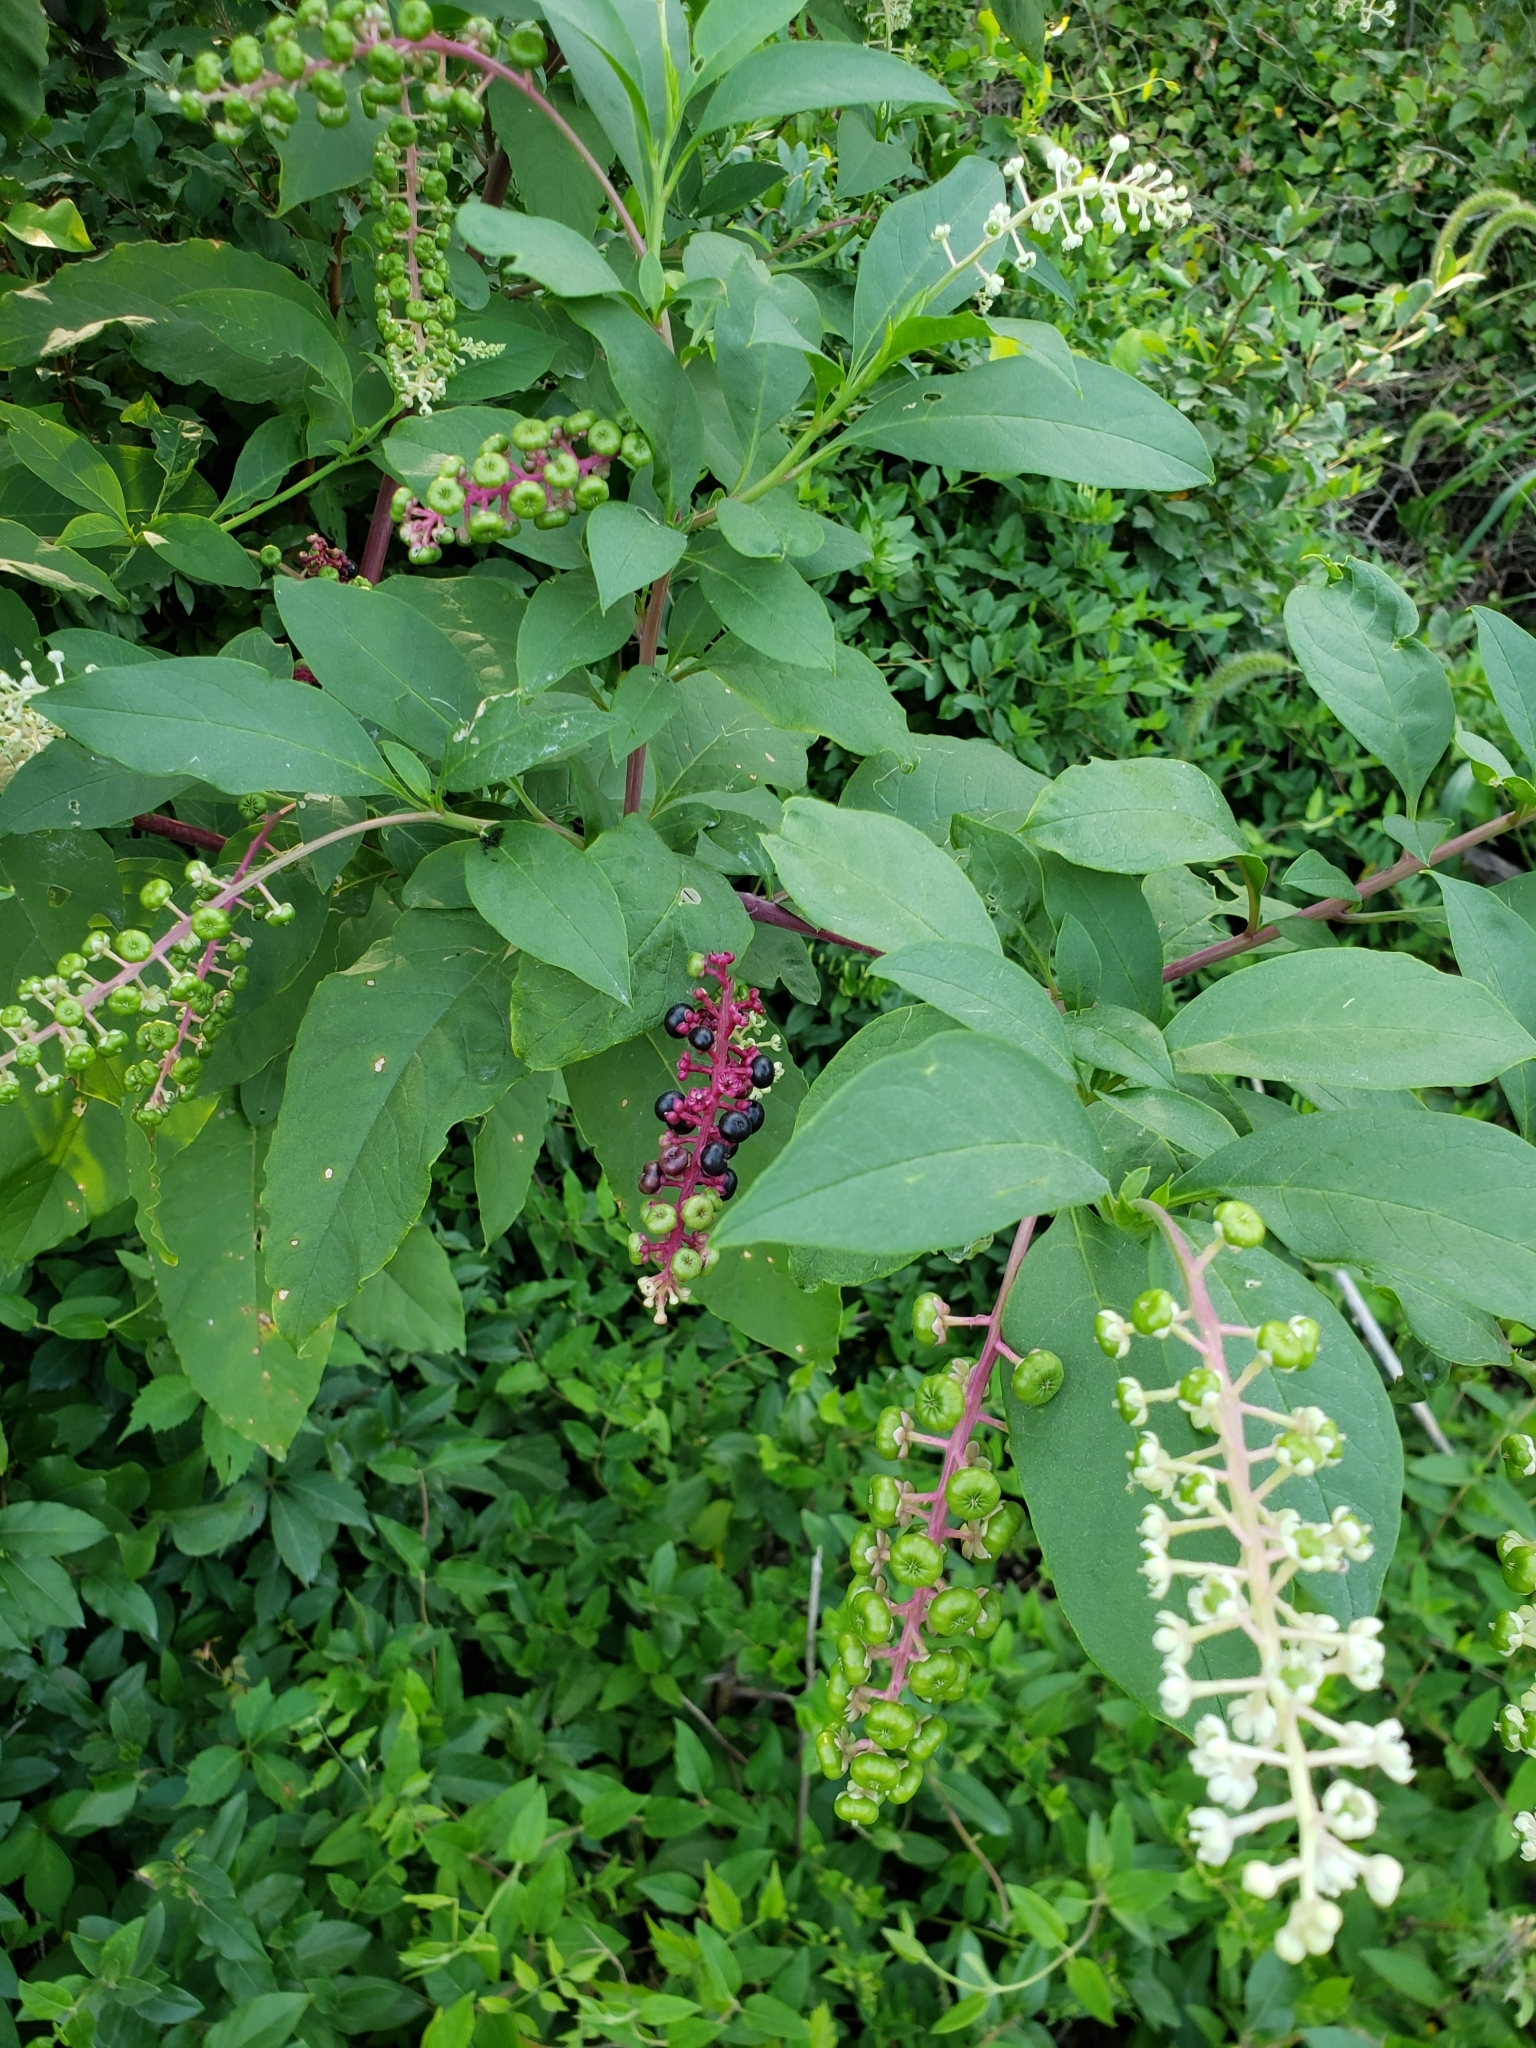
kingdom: Plantae
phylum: Tracheophyta
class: Magnoliopsida
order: Caryophyllales
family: Phytolaccaceae
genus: Phytolacca
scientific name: Phytolacca americana
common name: American pokeweed
